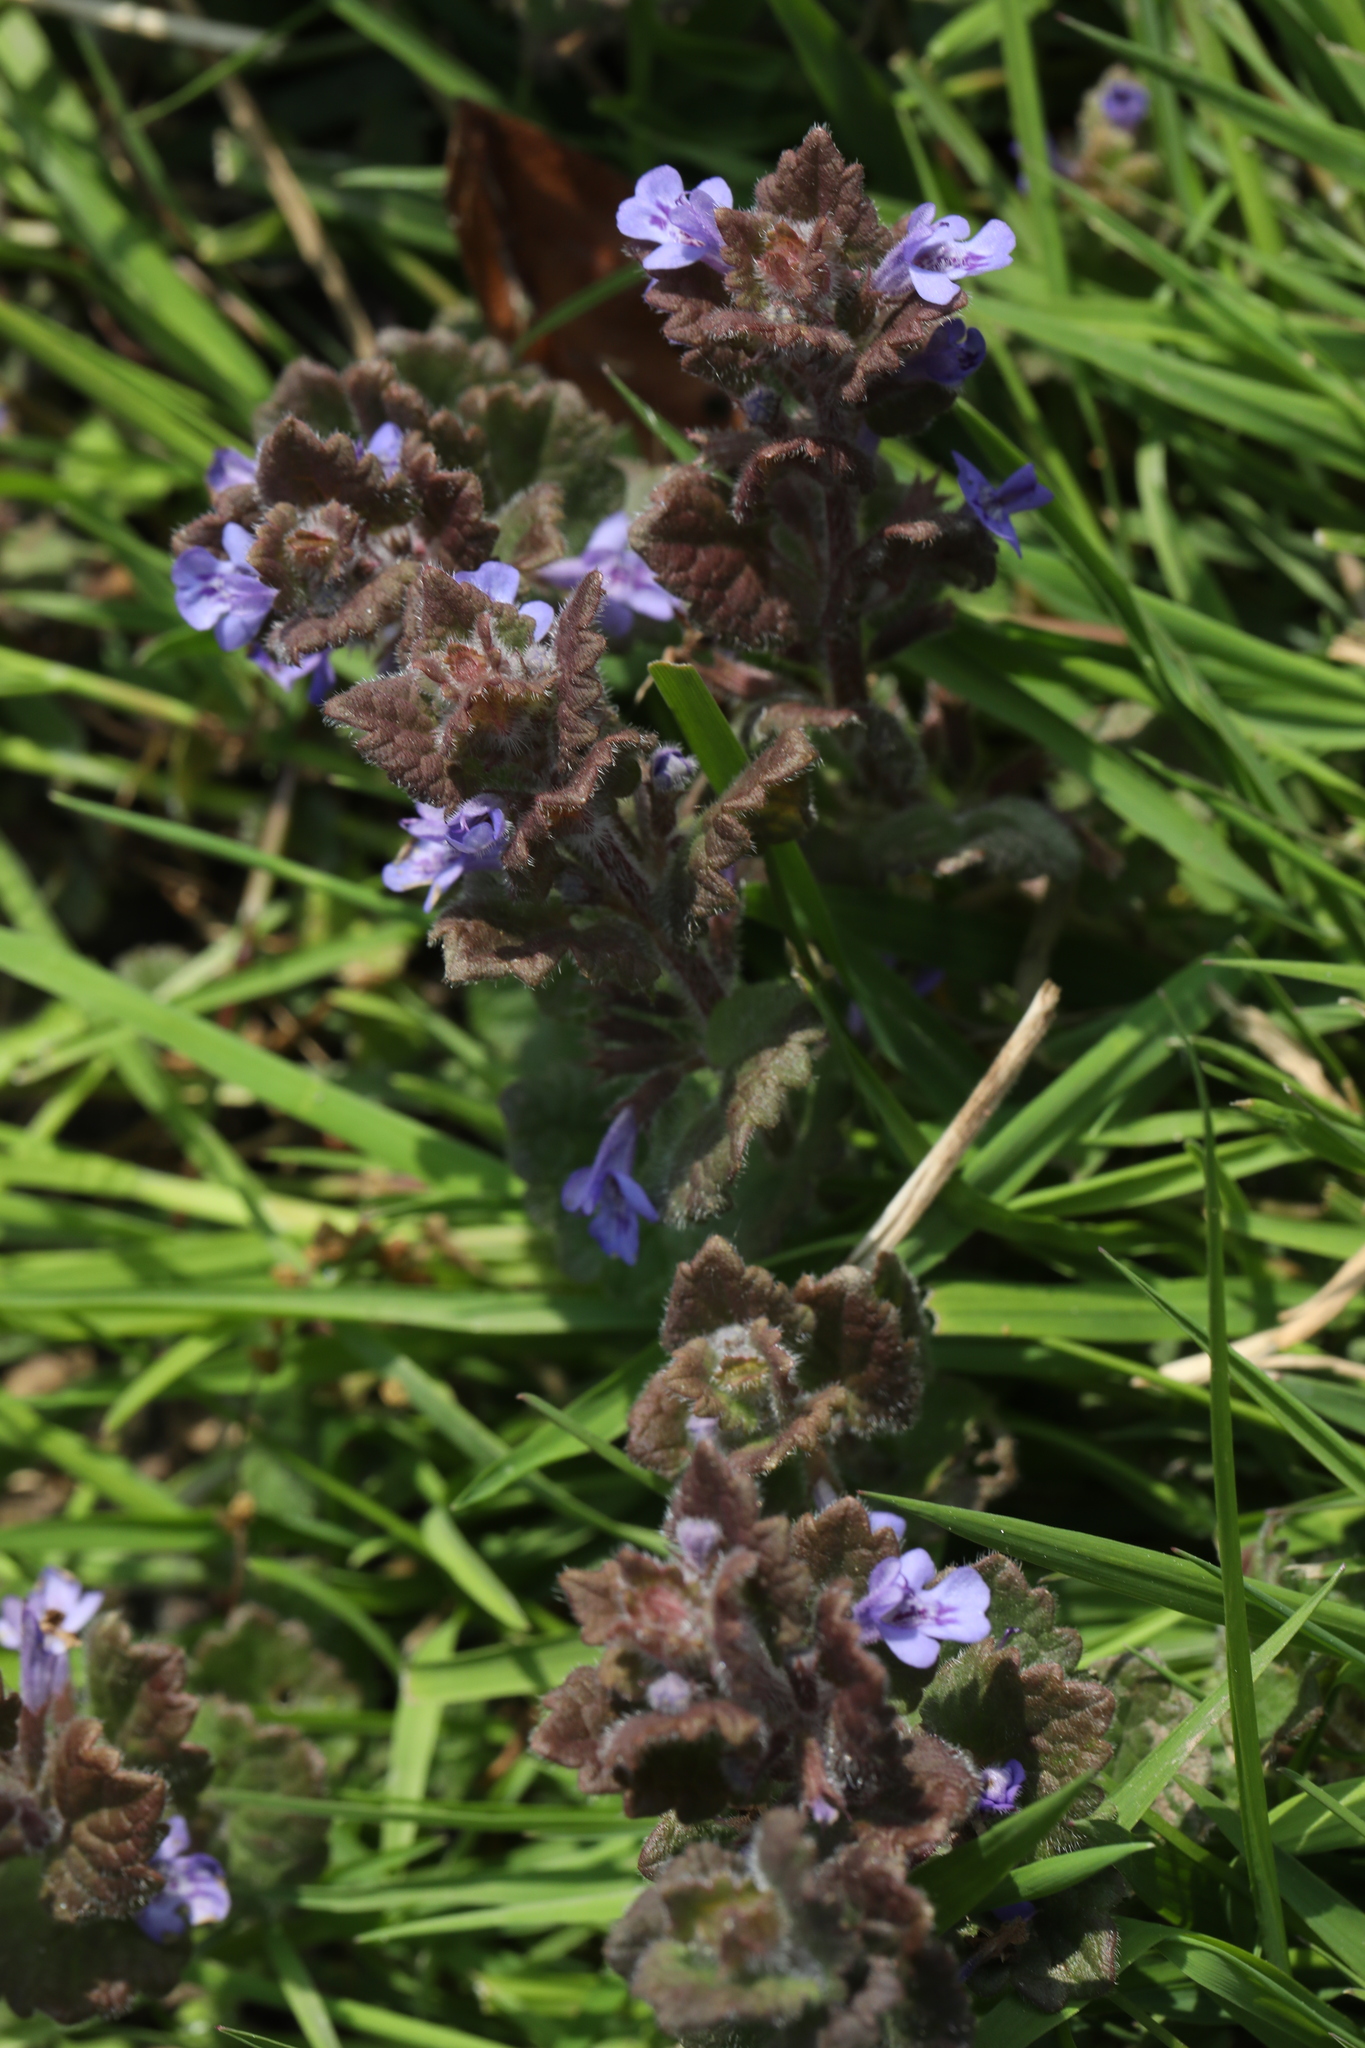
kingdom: Plantae
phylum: Tracheophyta
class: Magnoliopsida
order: Lamiales
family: Lamiaceae
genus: Glechoma
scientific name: Glechoma hederacea
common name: Ground ivy
